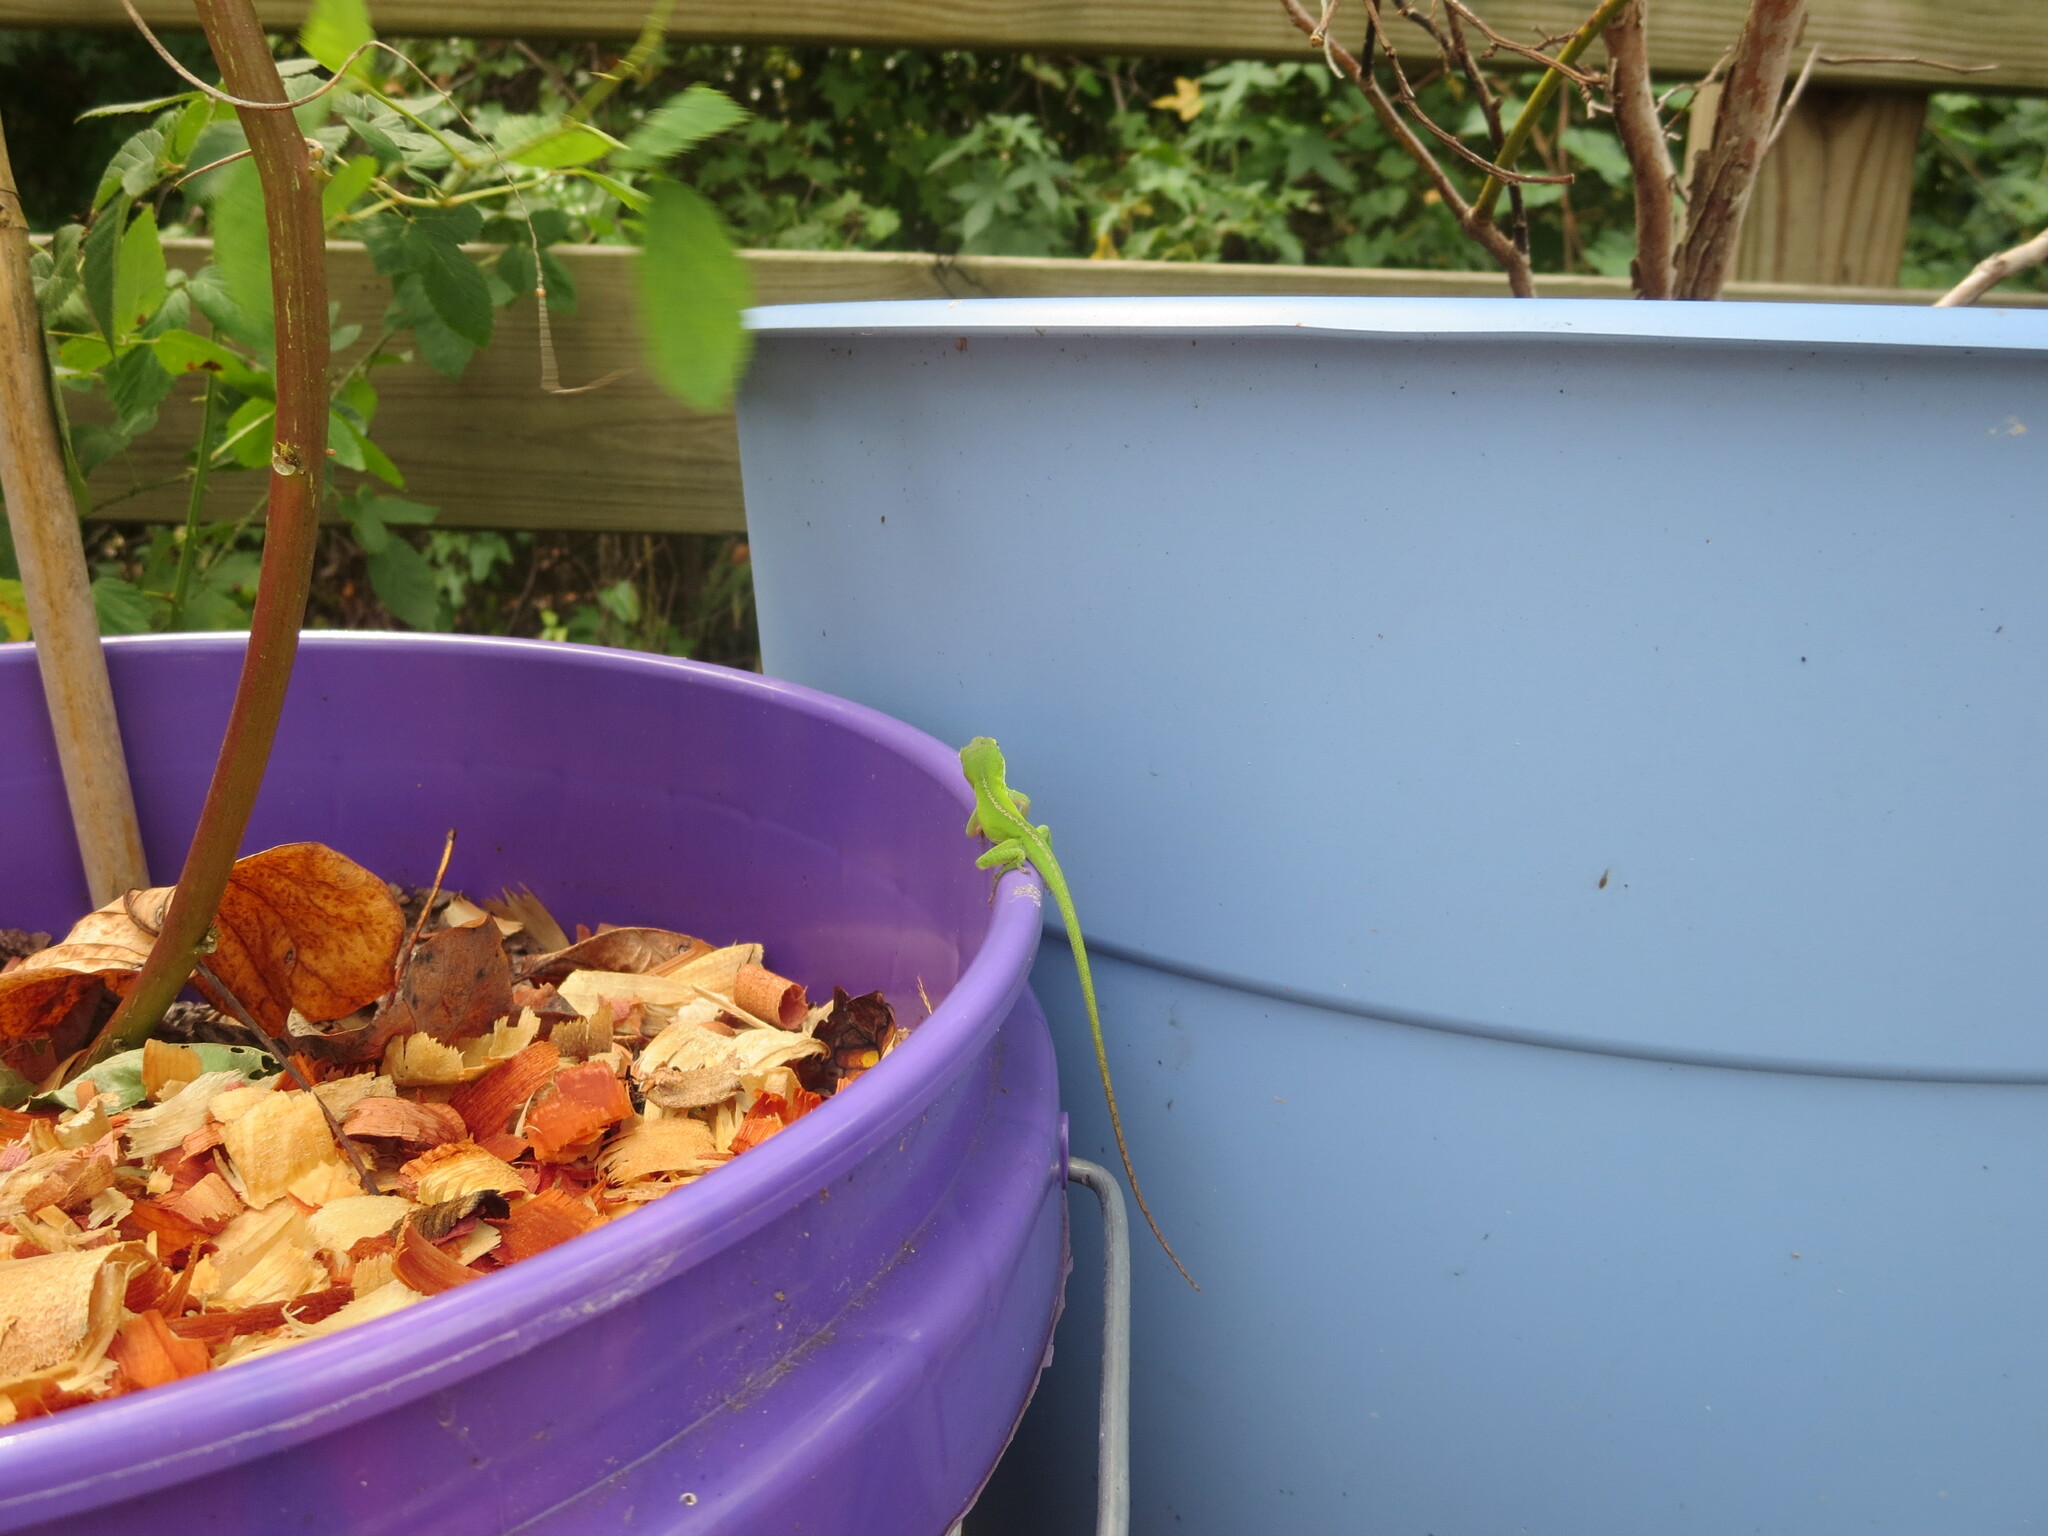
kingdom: Animalia
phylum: Chordata
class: Squamata
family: Dactyloidae
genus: Anolis
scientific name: Anolis carolinensis
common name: Green anole
